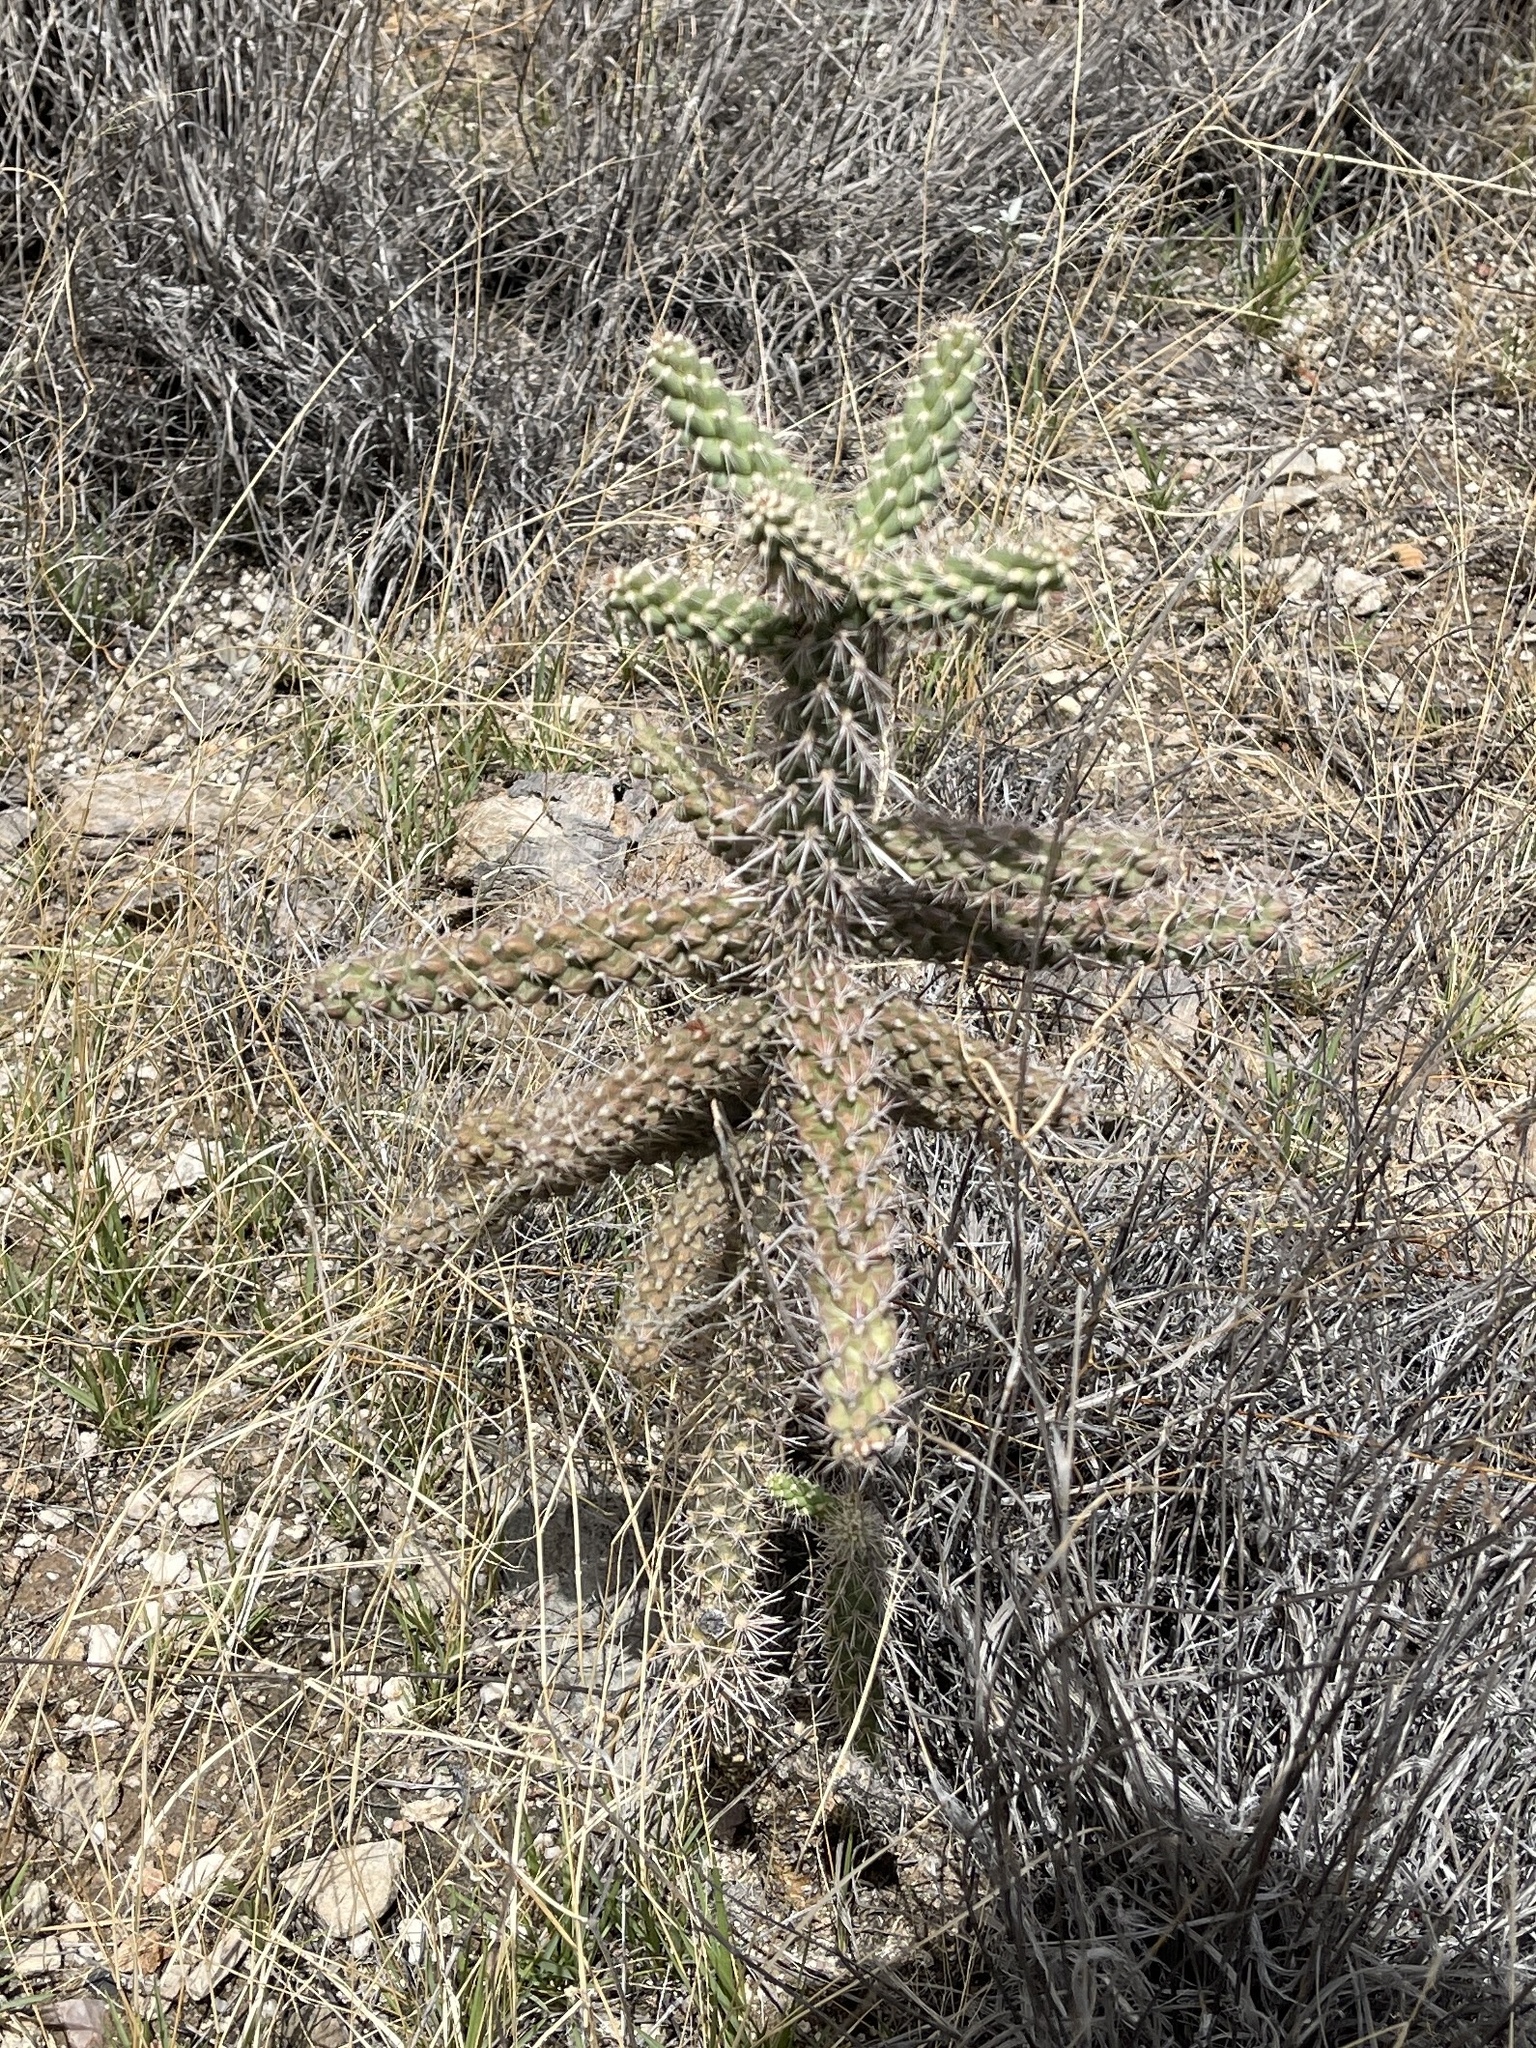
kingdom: Plantae
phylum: Tracheophyta
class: Magnoliopsida
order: Caryophyllales
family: Cactaceae
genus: Cylindropuntia
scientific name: Cylindropuntia imbricata
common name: Candelabrum cactus
